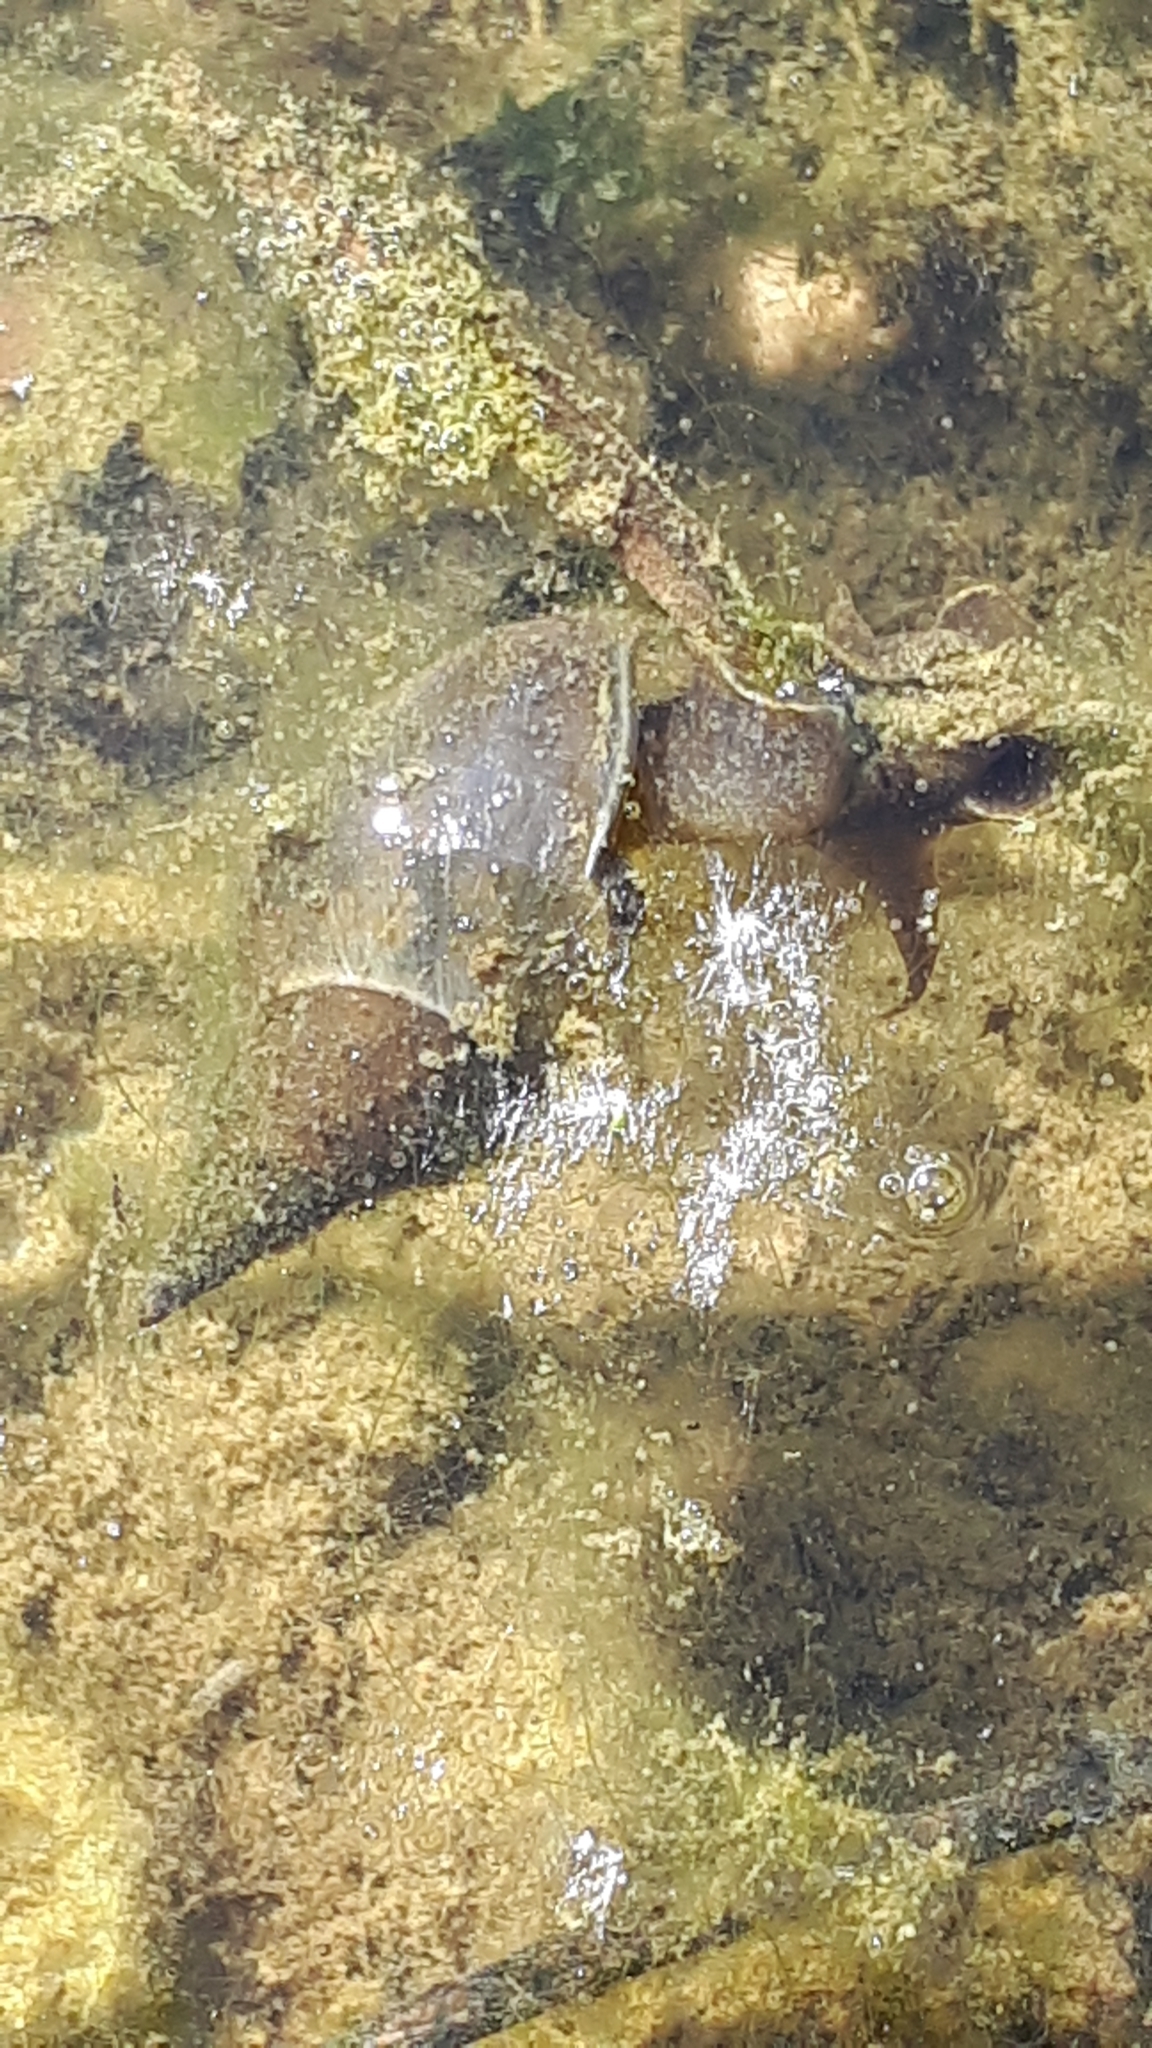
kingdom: Animalia
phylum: Mollusca
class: Gastropoda
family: Lymnaeidae
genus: Lymnaea
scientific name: Lymnaea stagnalis
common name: Great pond snail
